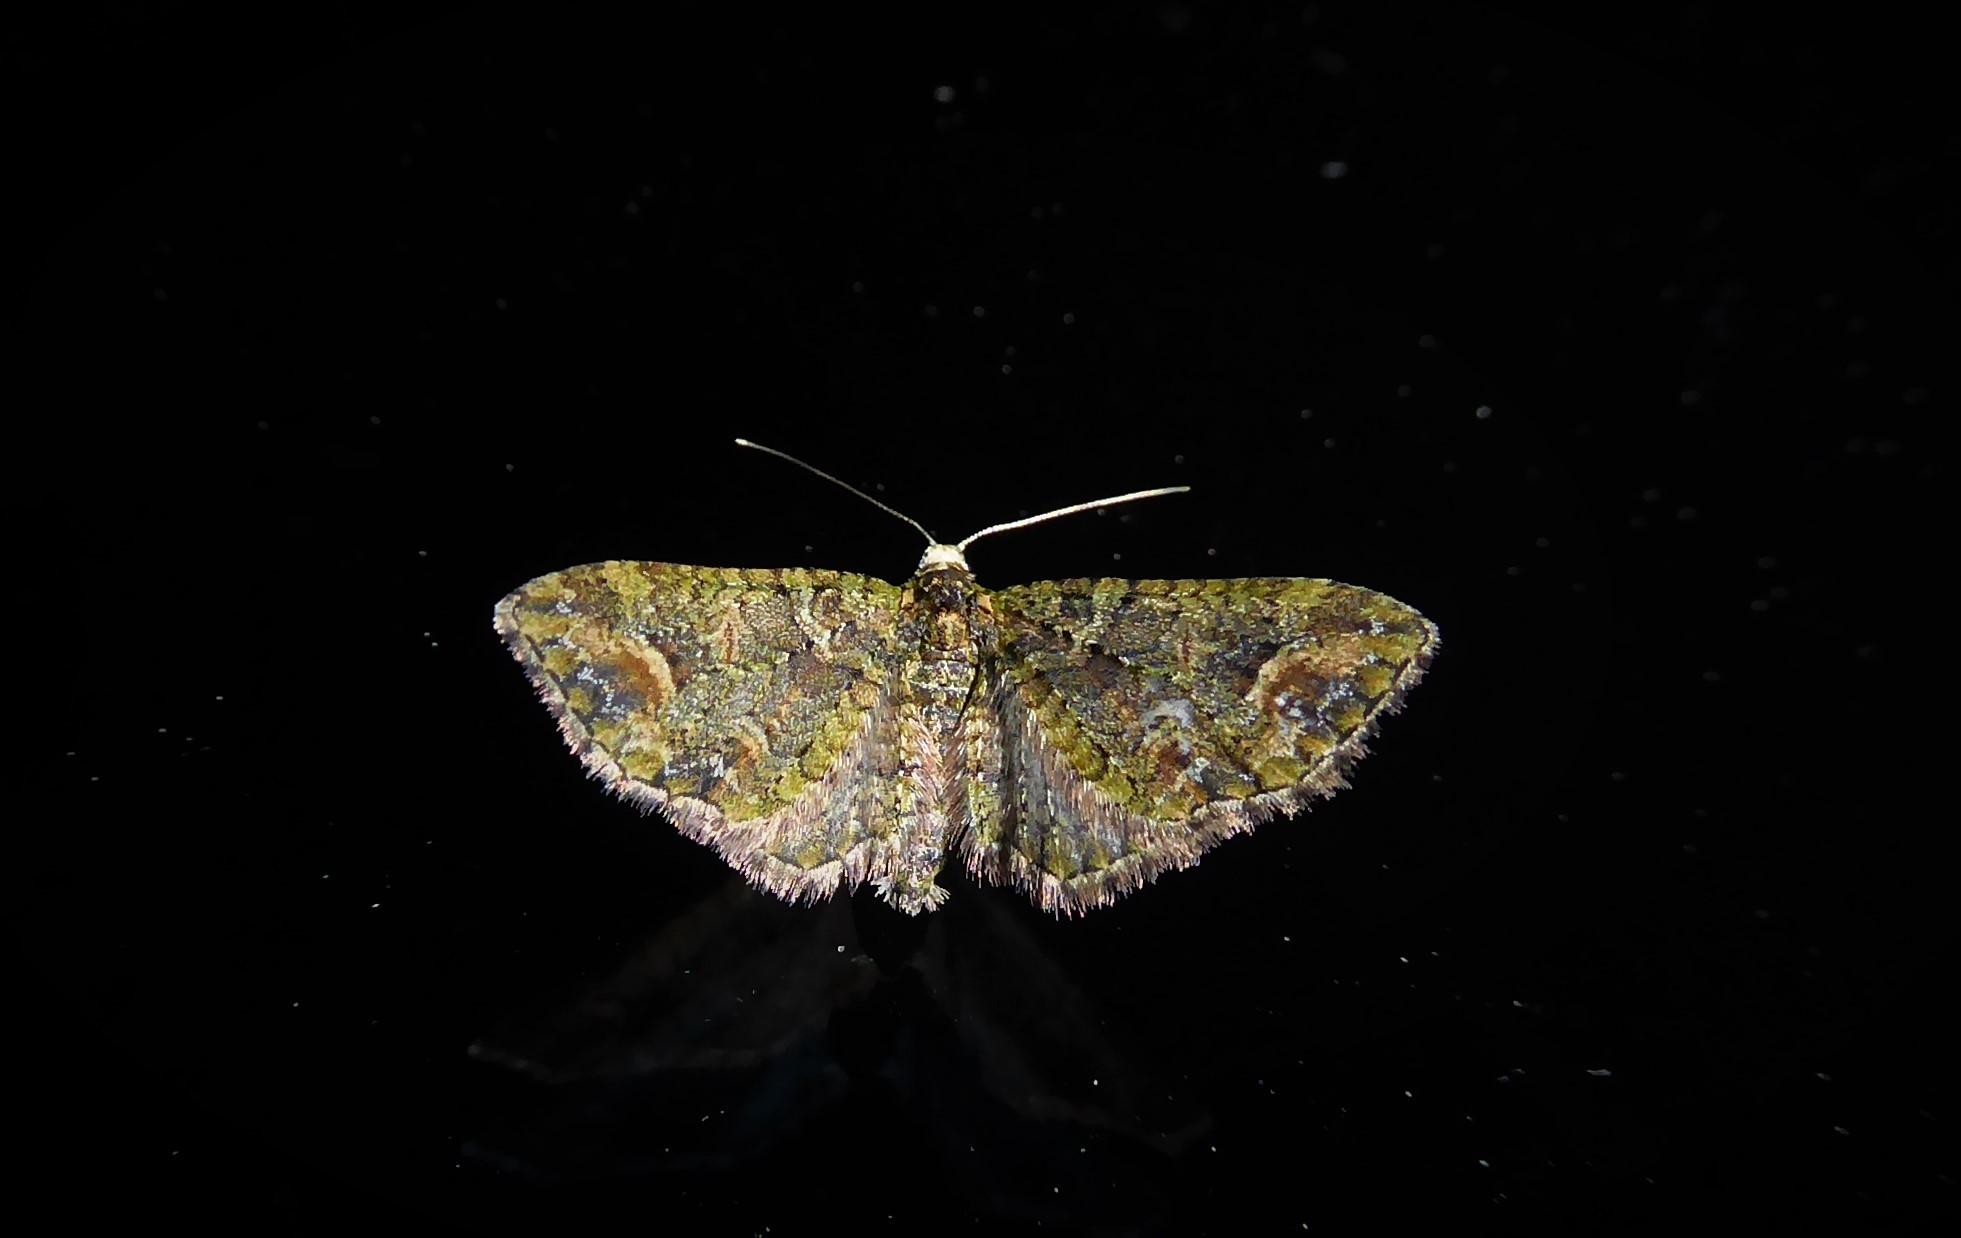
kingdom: Animalia
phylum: Arthropoda
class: Insecta
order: Lepidoptera
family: Geometridae
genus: Idaea
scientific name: Idaea mutanda
